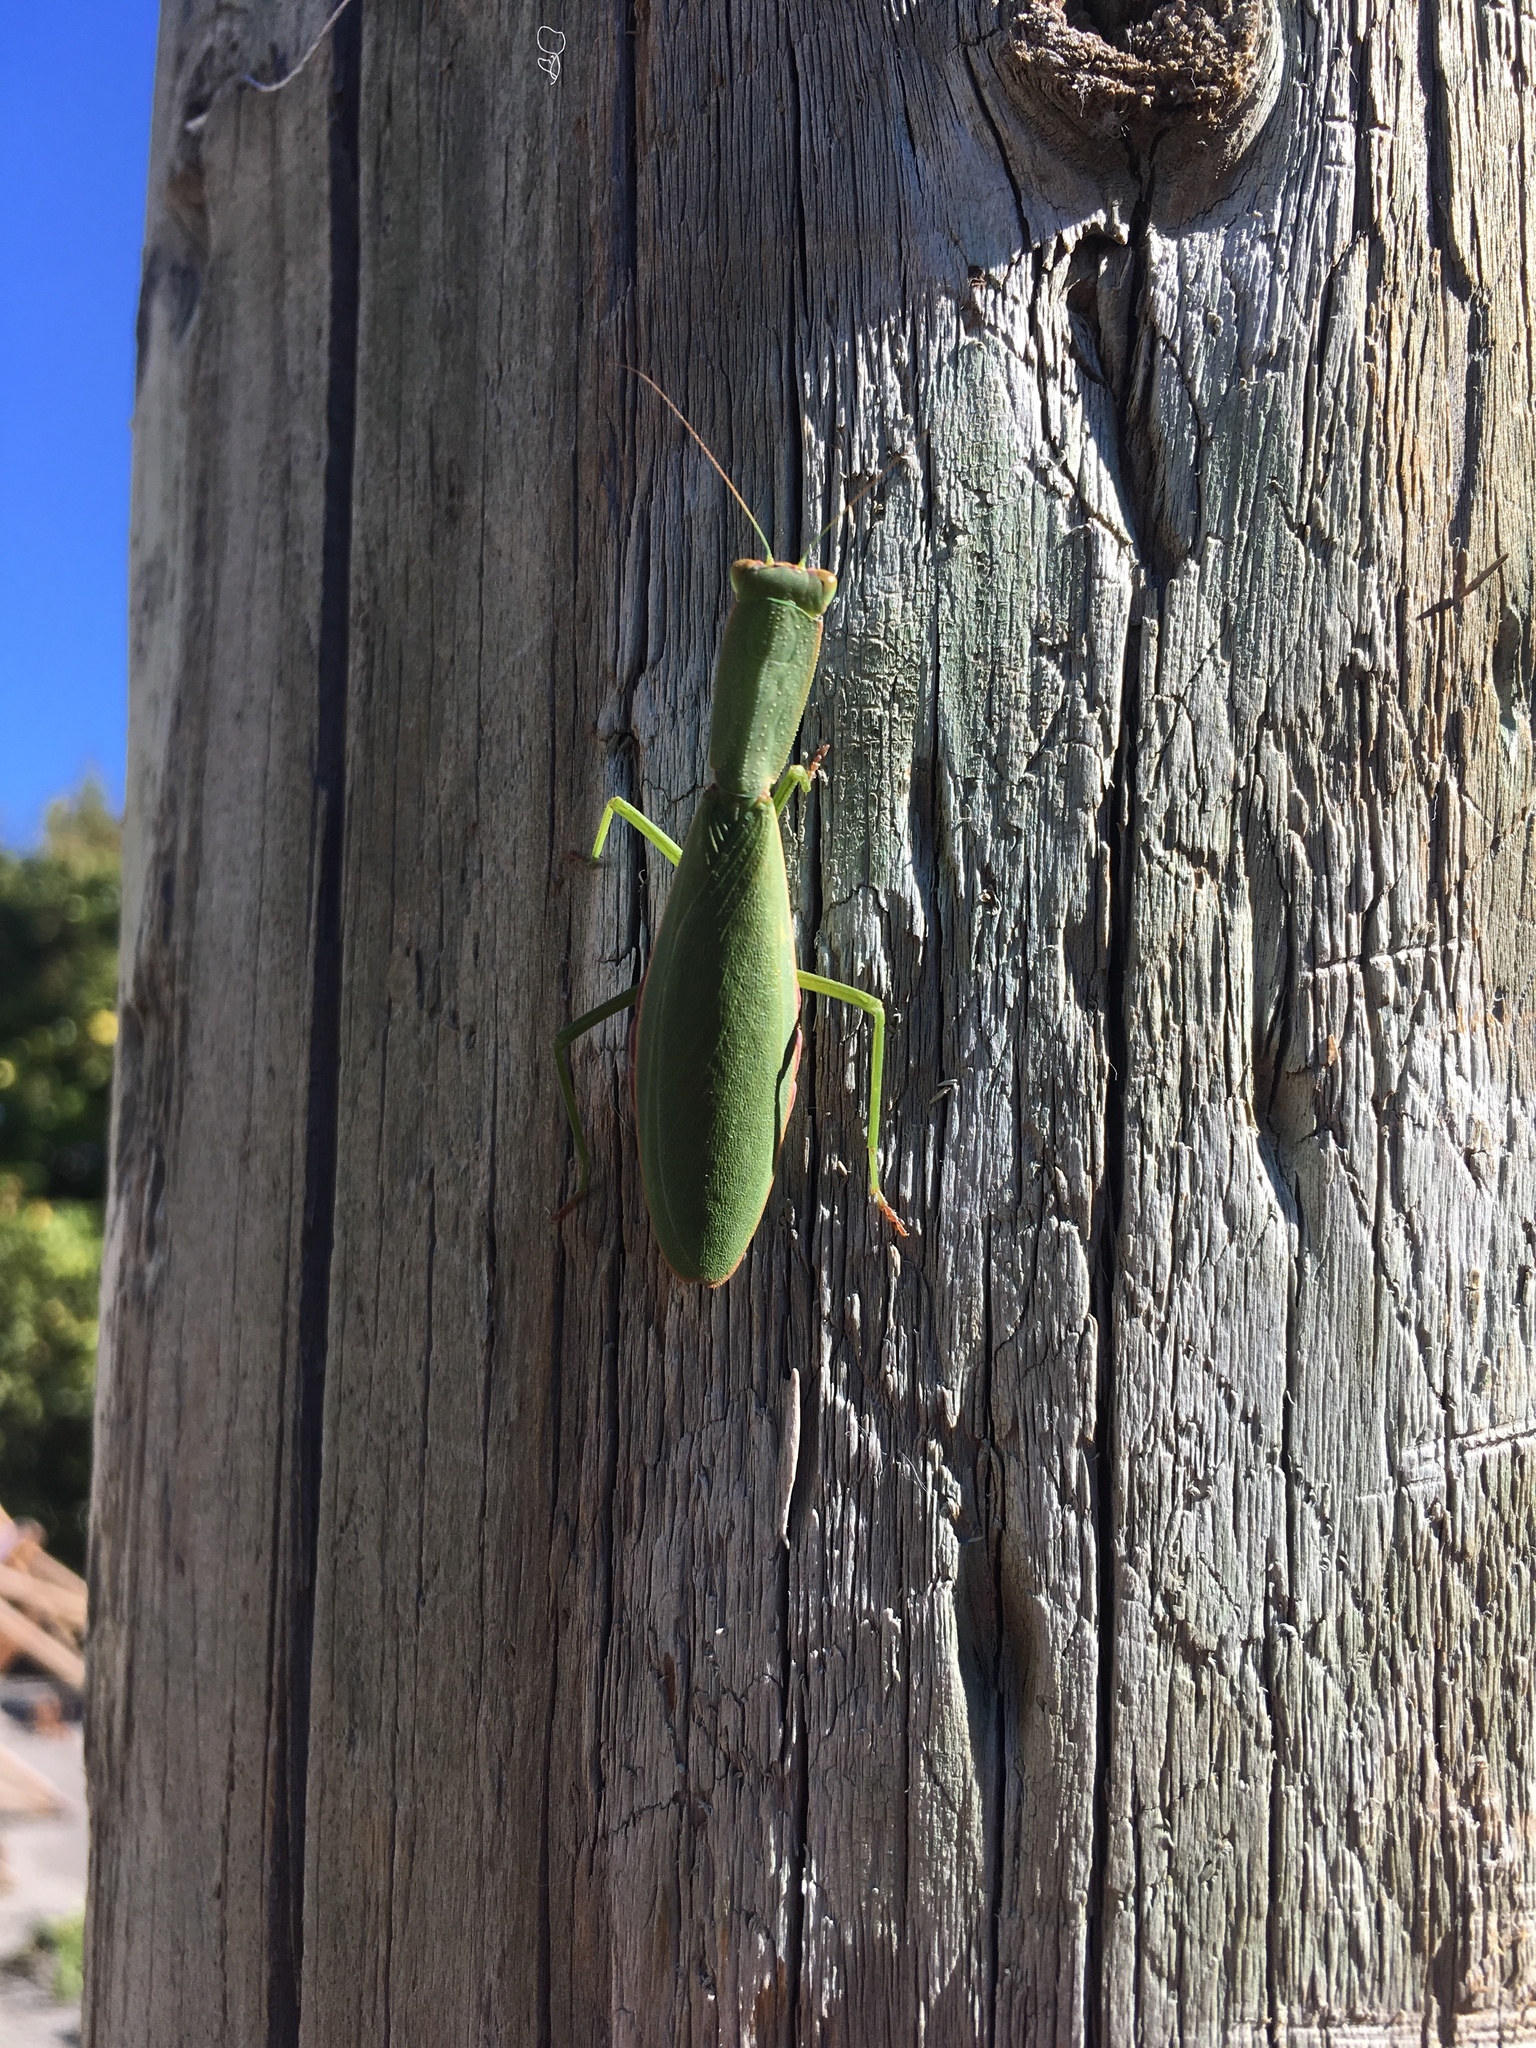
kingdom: Animalia
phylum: Arthropoda
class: Insecta
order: Mantodea
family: Mantidae
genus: Orthodera
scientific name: Orthodera novaezealandiae
